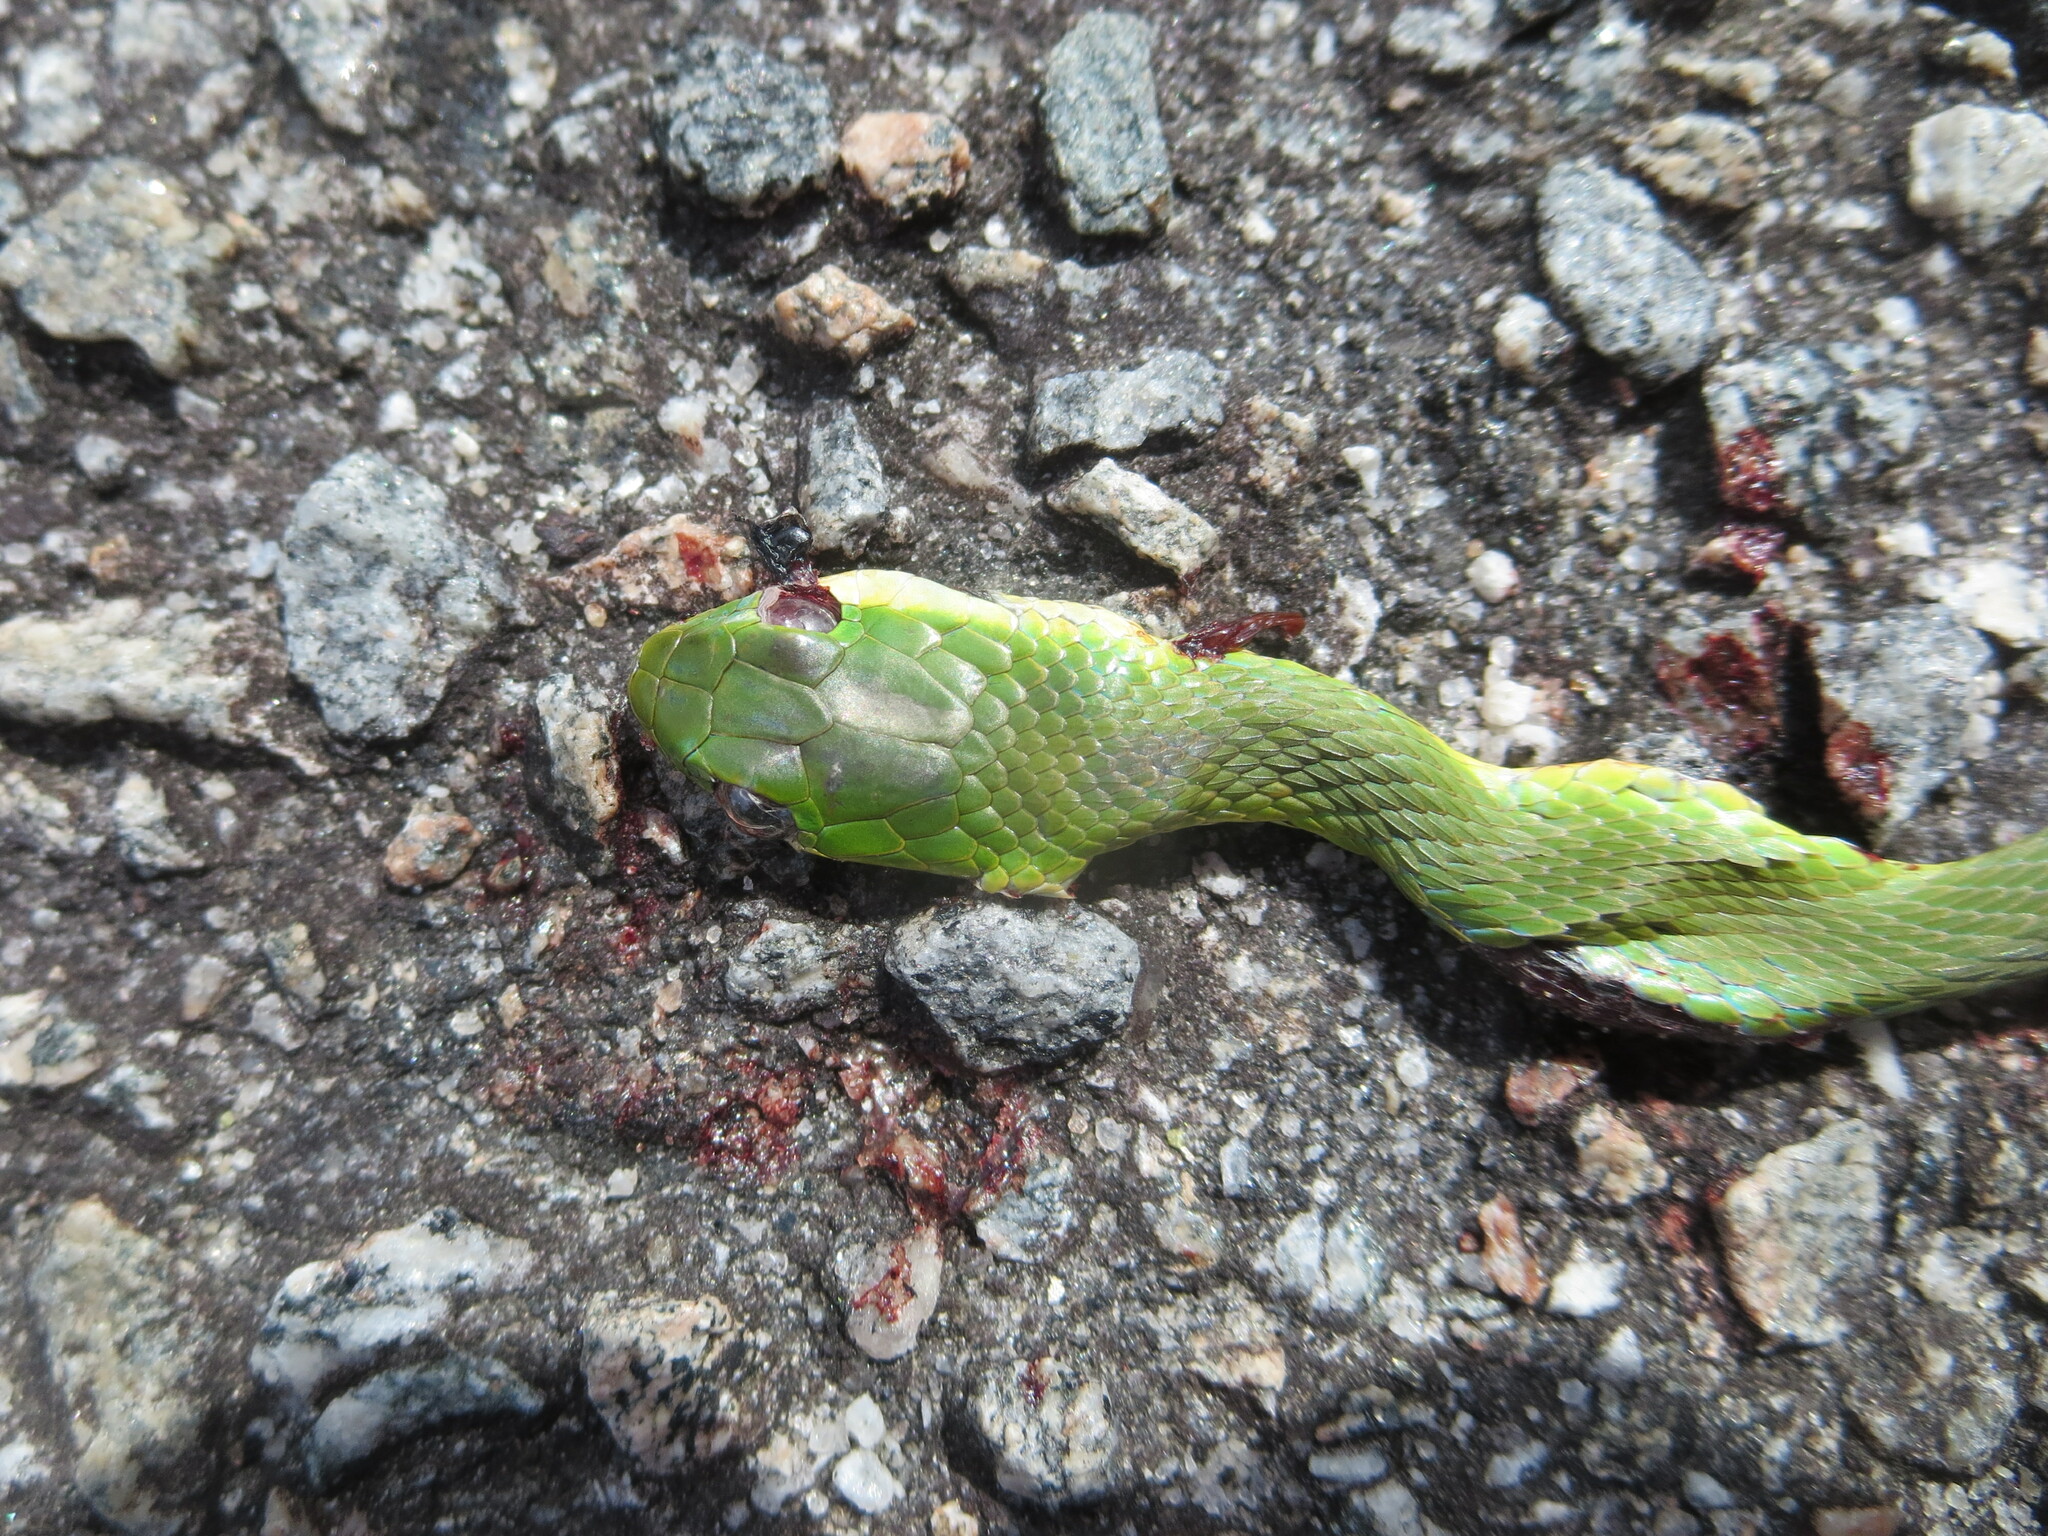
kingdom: Animalia
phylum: Chordata
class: Squamata
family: Colubridae
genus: Opheodrys
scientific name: Opheodrys aestivus
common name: Rough greensnake
